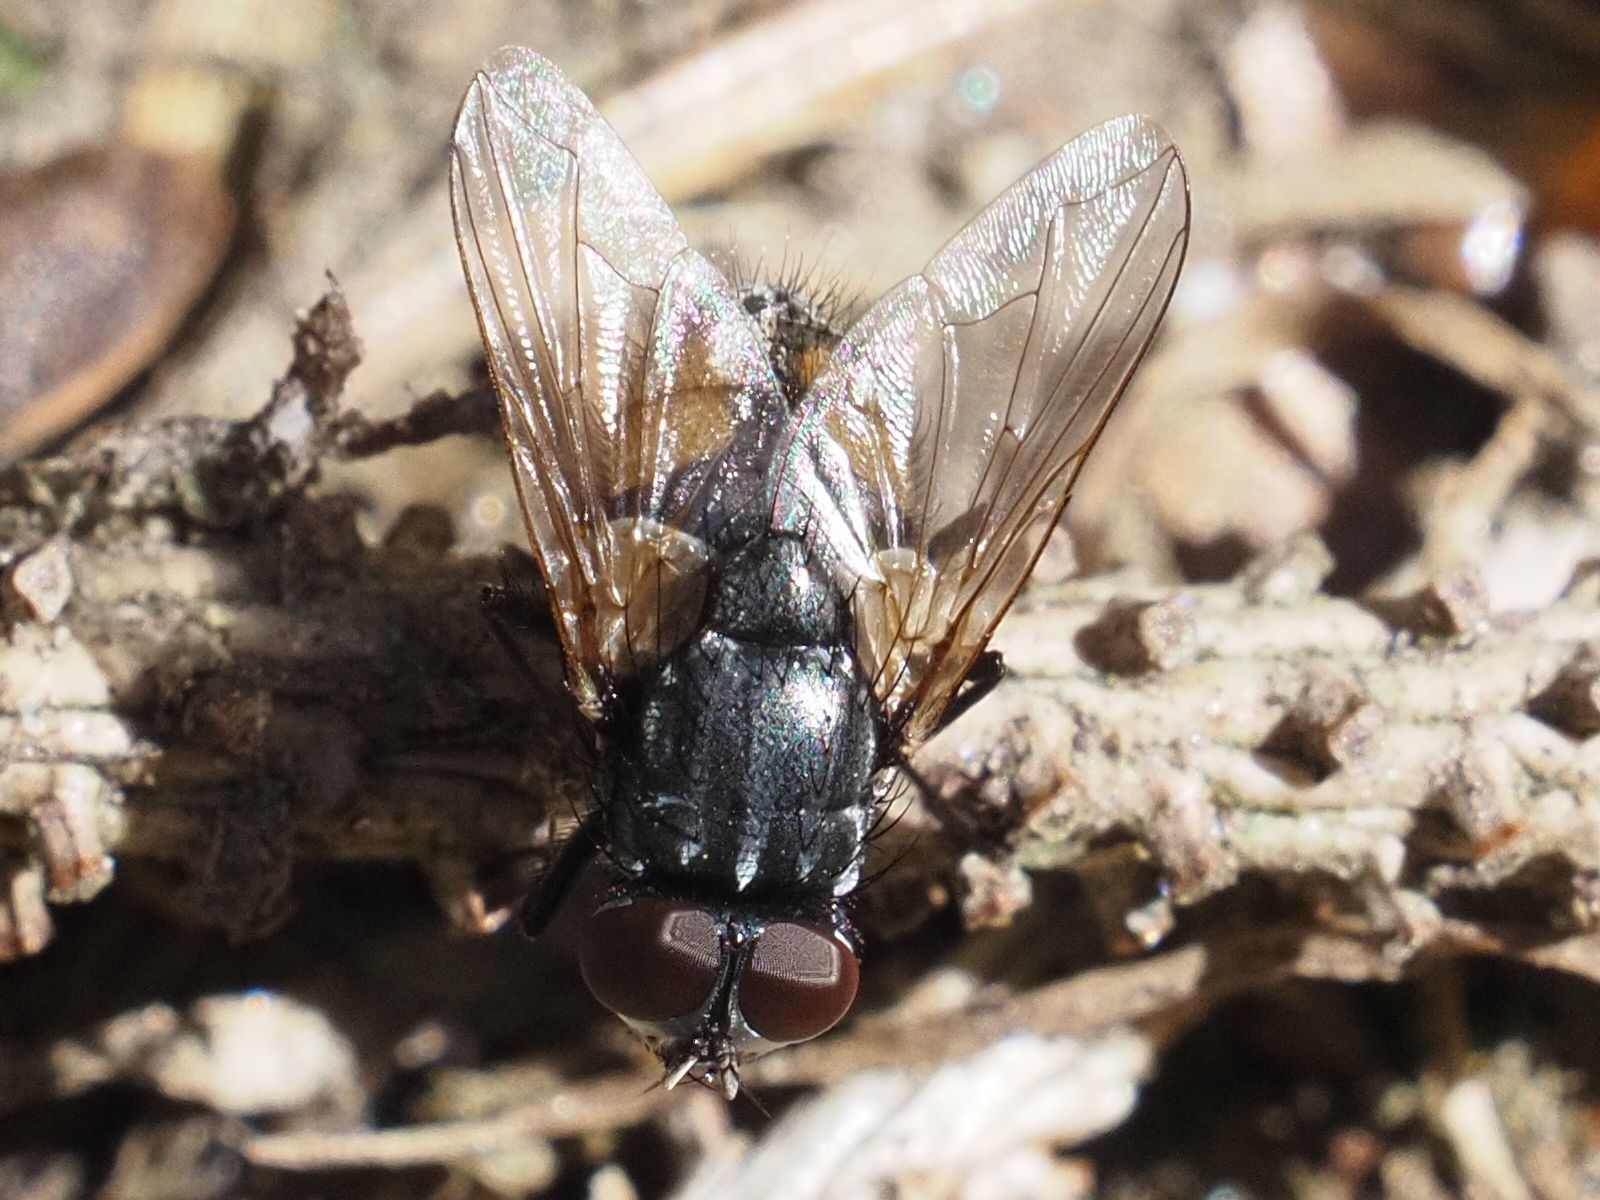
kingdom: Animalia
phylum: Arthropoda
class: Insecta
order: Diptera
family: Muscidae
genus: Musca
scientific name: Musca autumnalis
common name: Face fly
